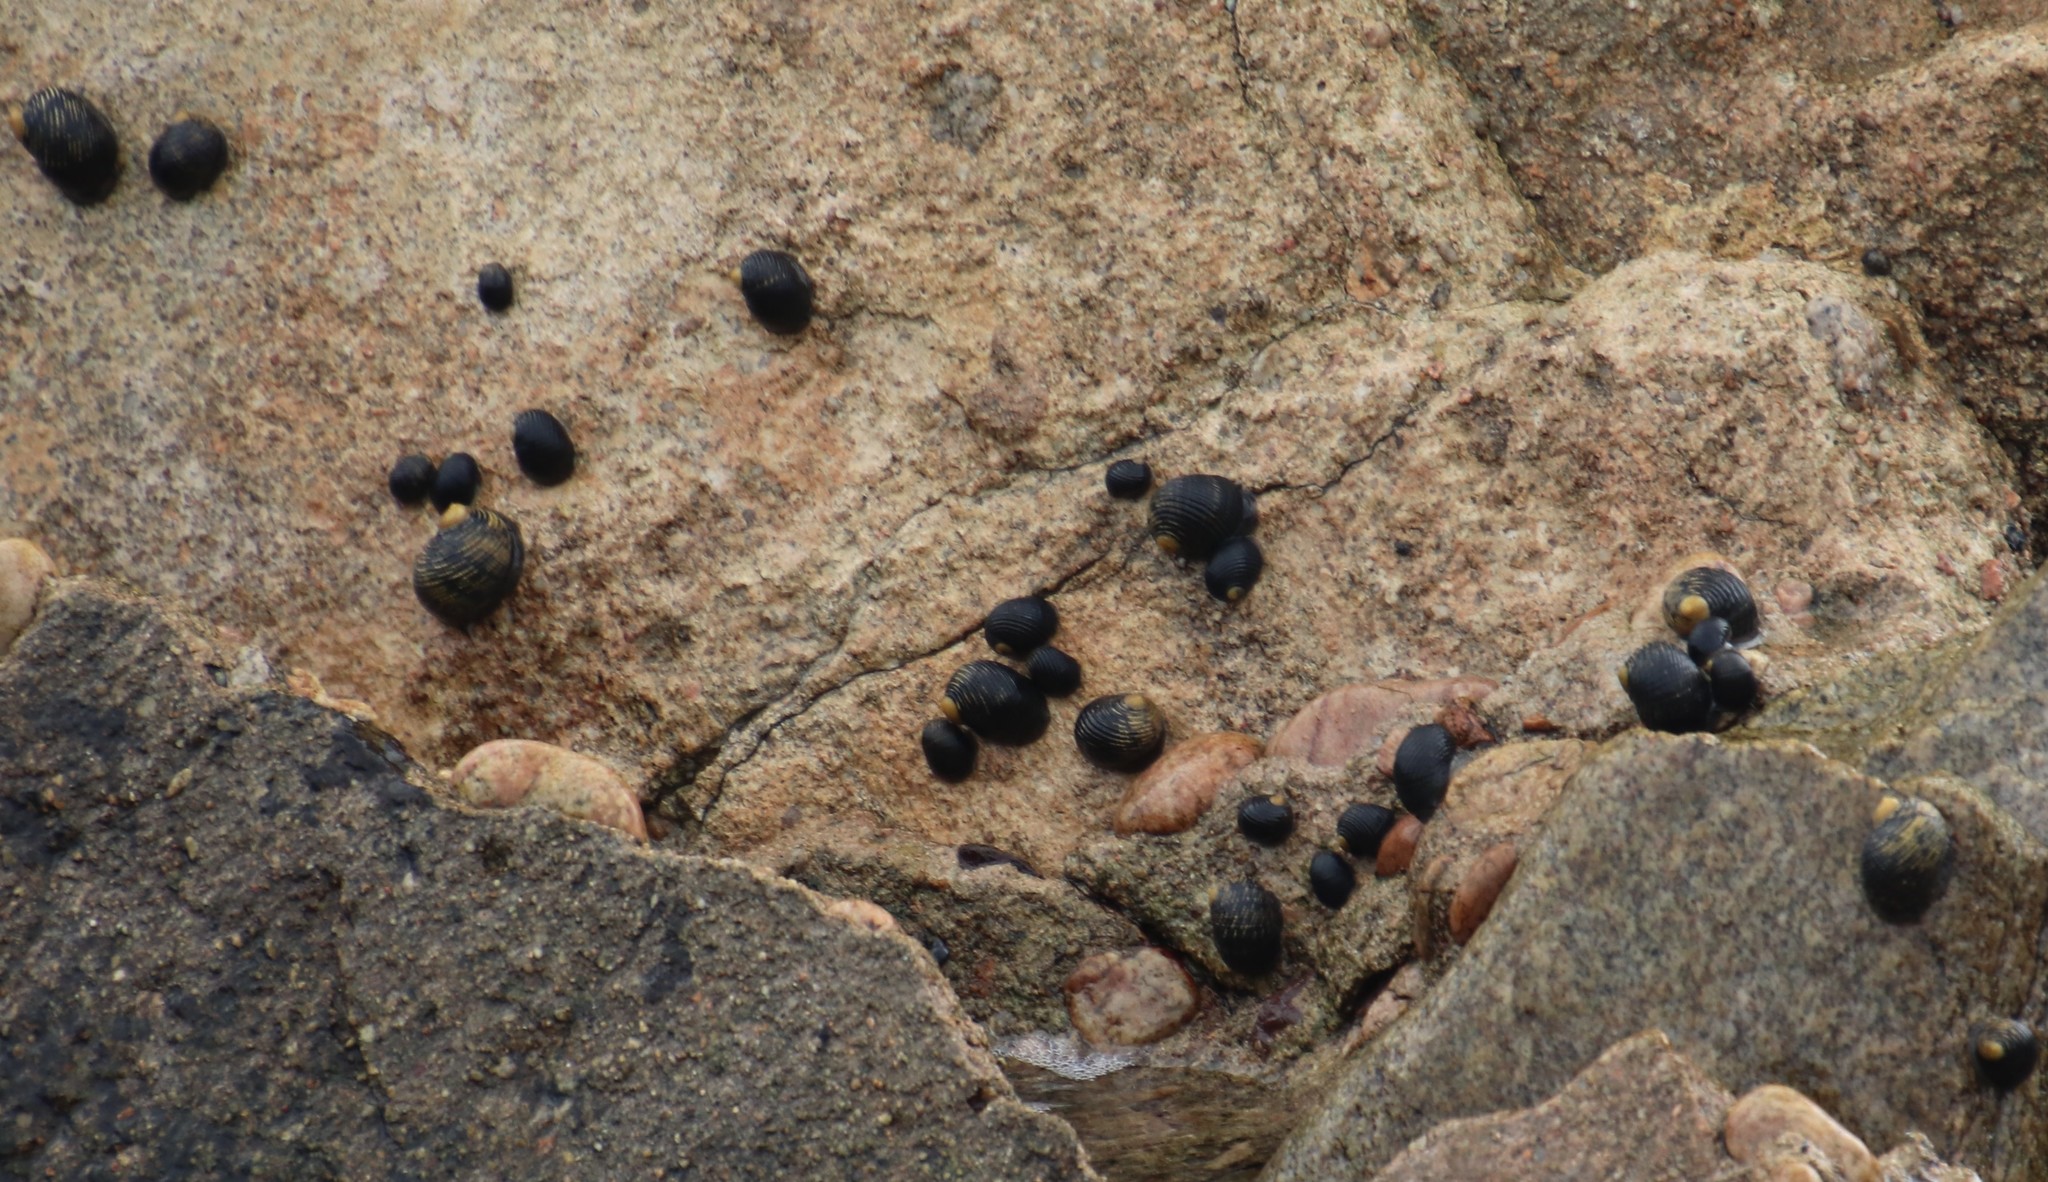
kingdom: Animalia
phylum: Mollusca
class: Gastropoda
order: Cycloneritida
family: Neritidae
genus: Nerita
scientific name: Nerita scabricosta
